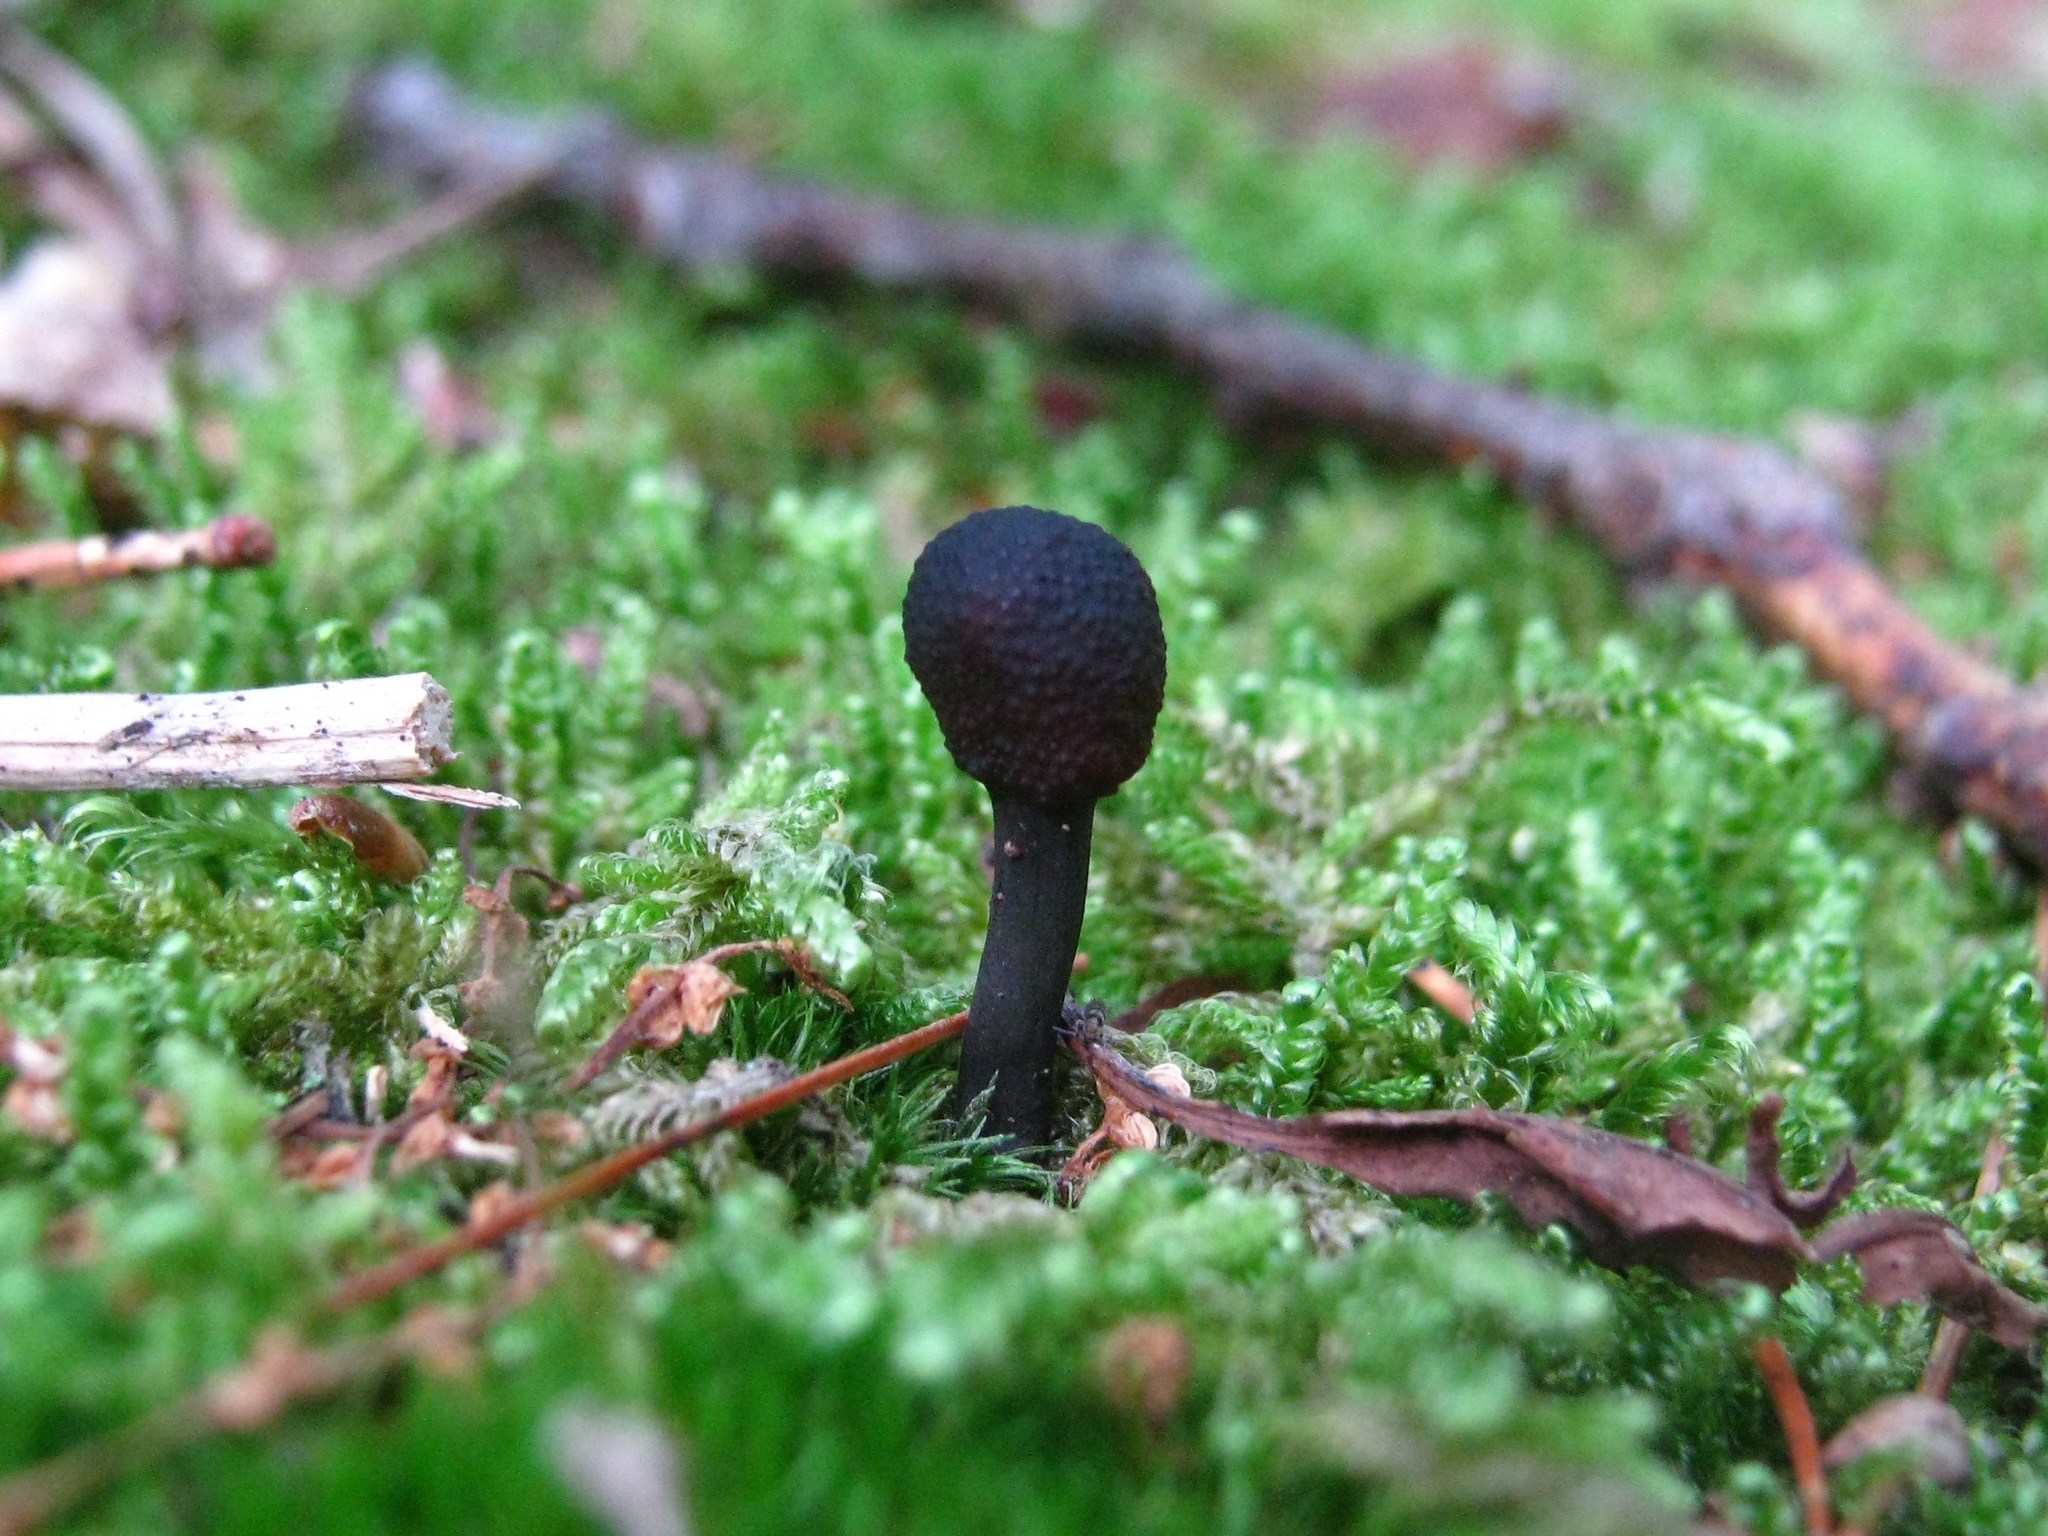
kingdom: Fungi
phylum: Ascomycota
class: Sordariomycetes
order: Hypocreales
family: Ophiocordycipitaceae
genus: Tolypocladium
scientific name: Tolypocladium ophioglossoides
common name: Snaketongue truffleclub
